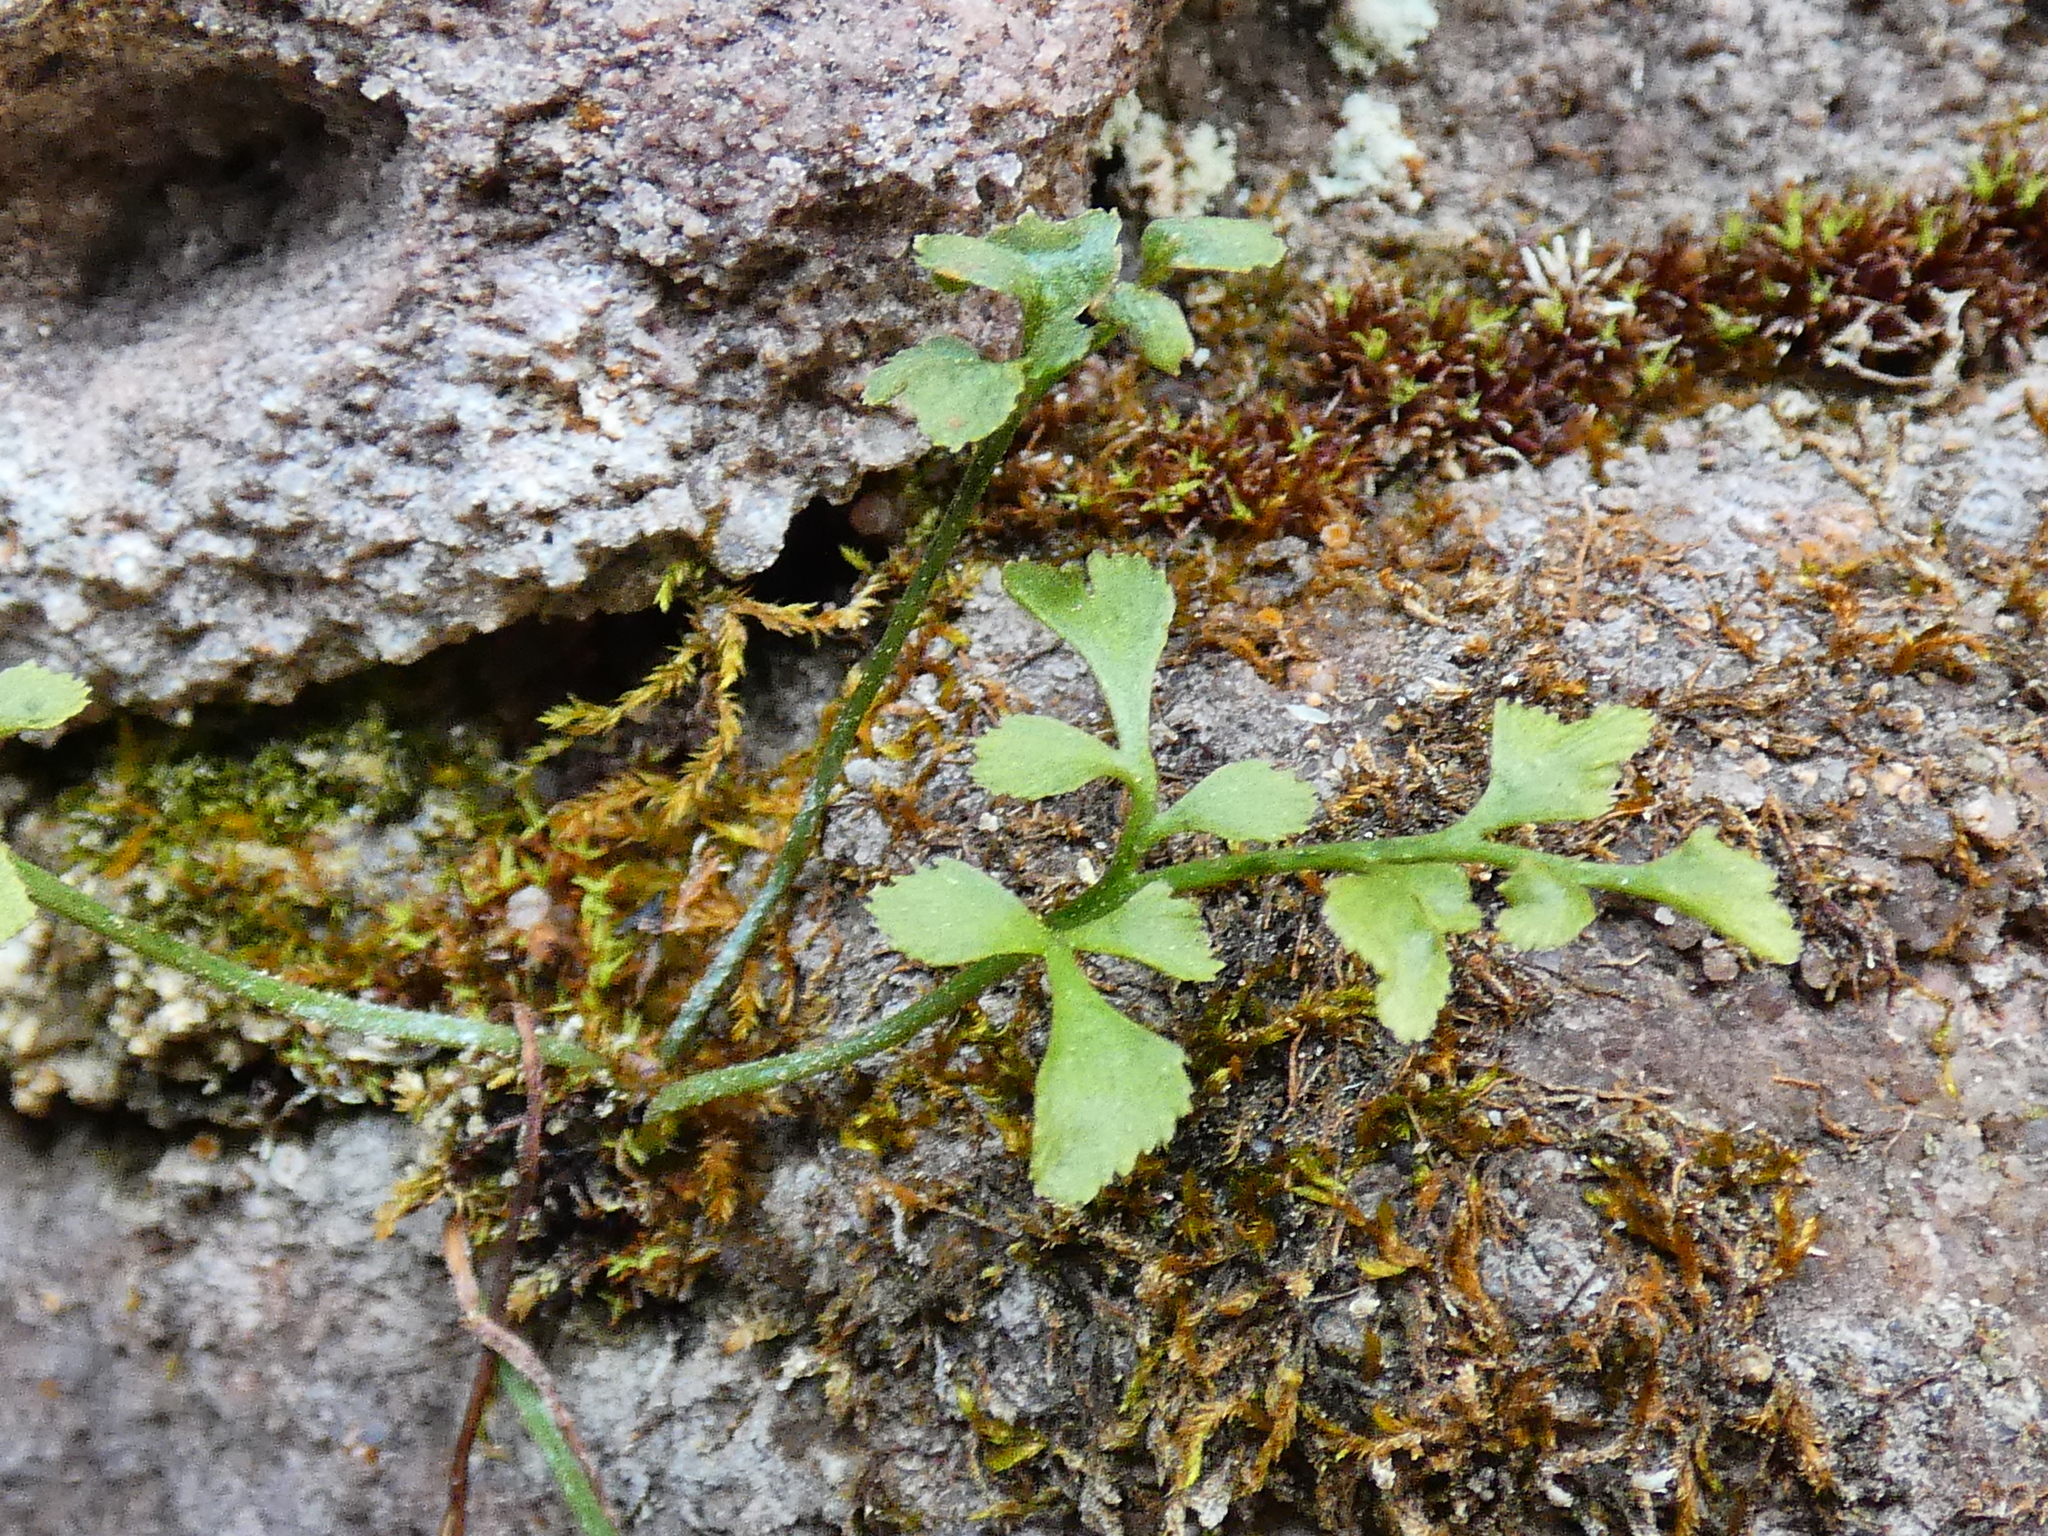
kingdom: Plantae
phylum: Tracheophyta
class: Polypodiopsida
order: Polypodiales
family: Aspleniaceae
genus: Asplenium
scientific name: Asplenium ruta-muraria
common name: Wall-rue
